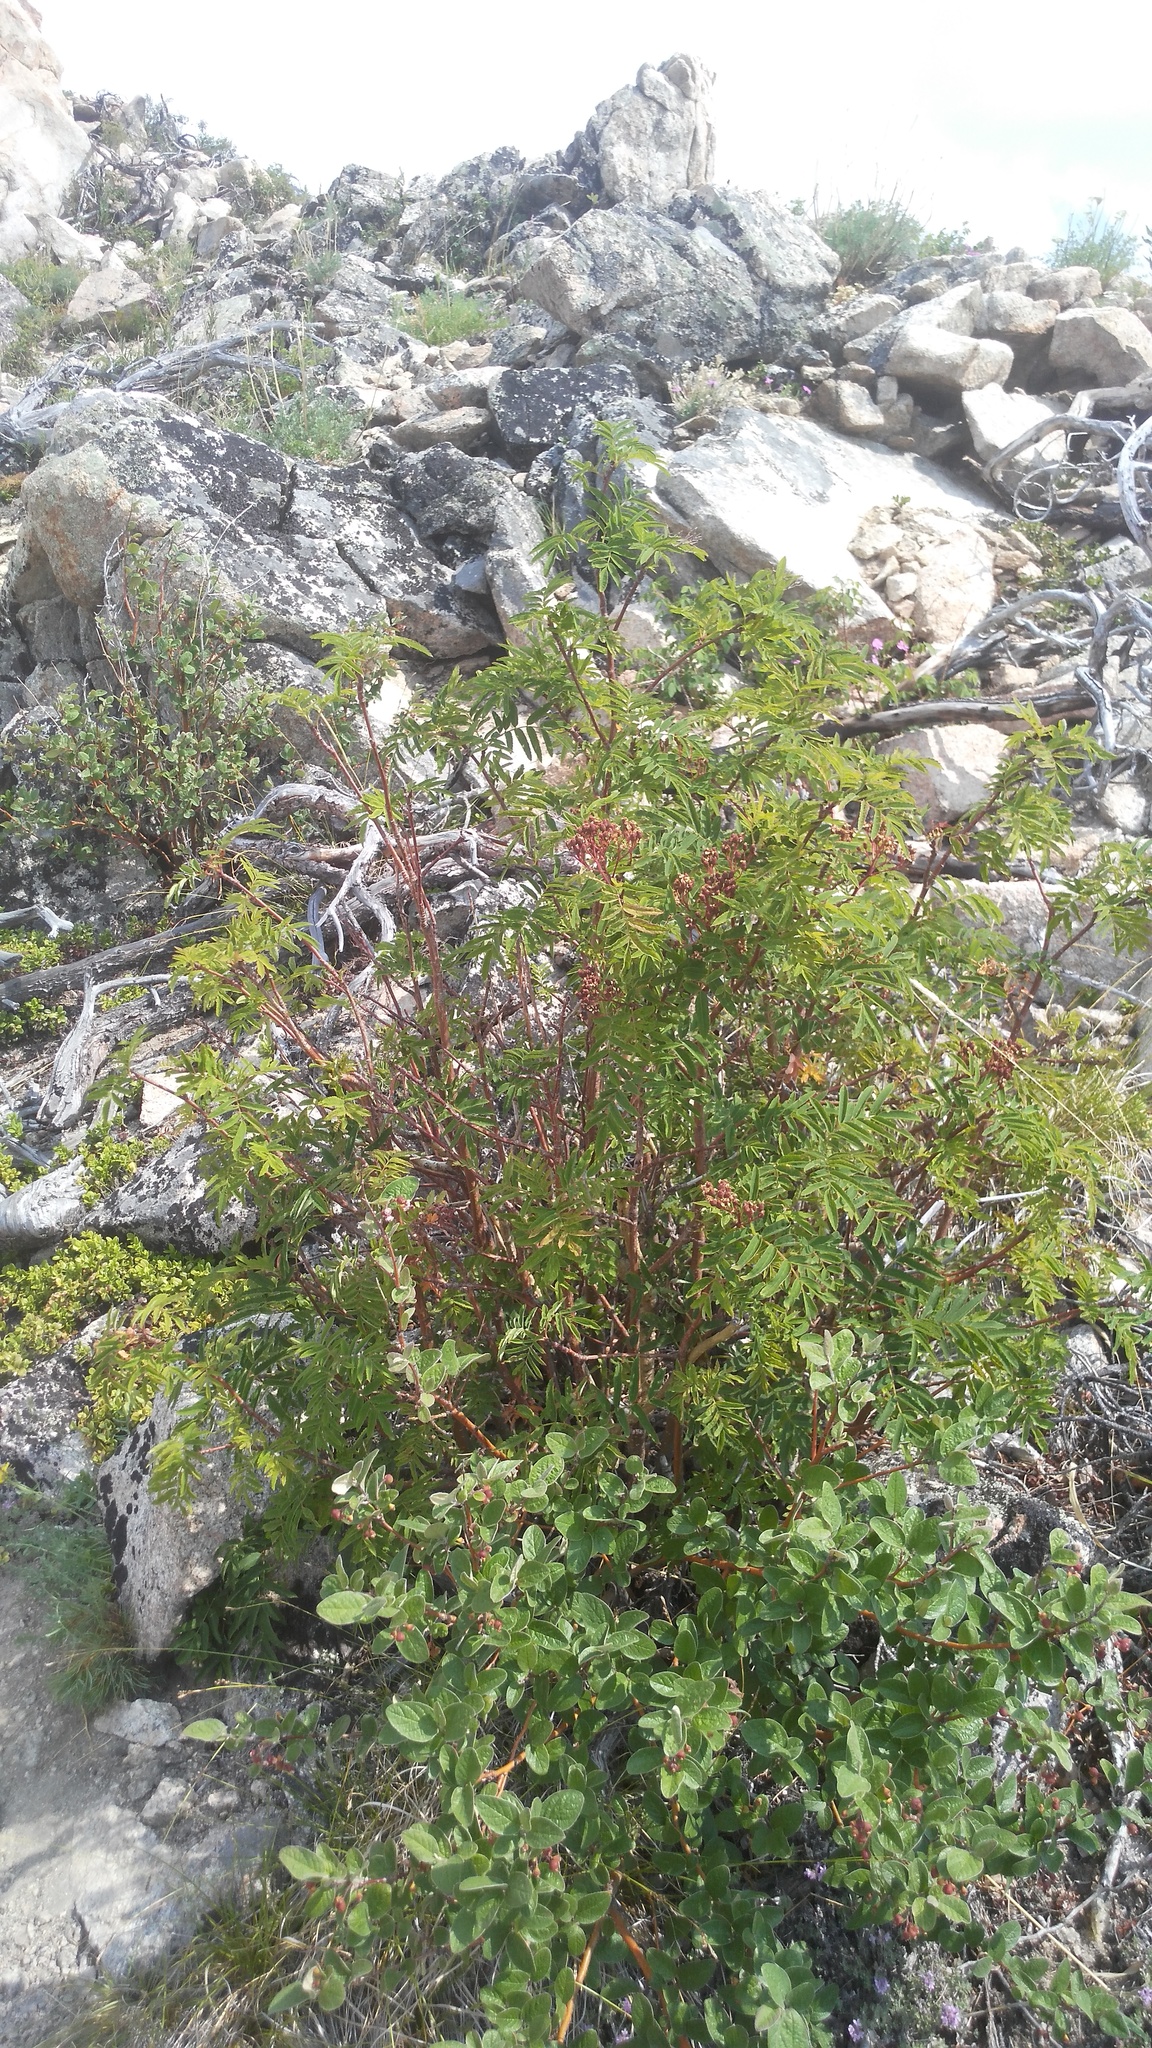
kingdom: Plantae
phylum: Tracheophyta
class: Magnoliopsida
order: Rosales
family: Rosaceae
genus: Sorbus
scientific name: Sorbus aucuparia
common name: Rowan
